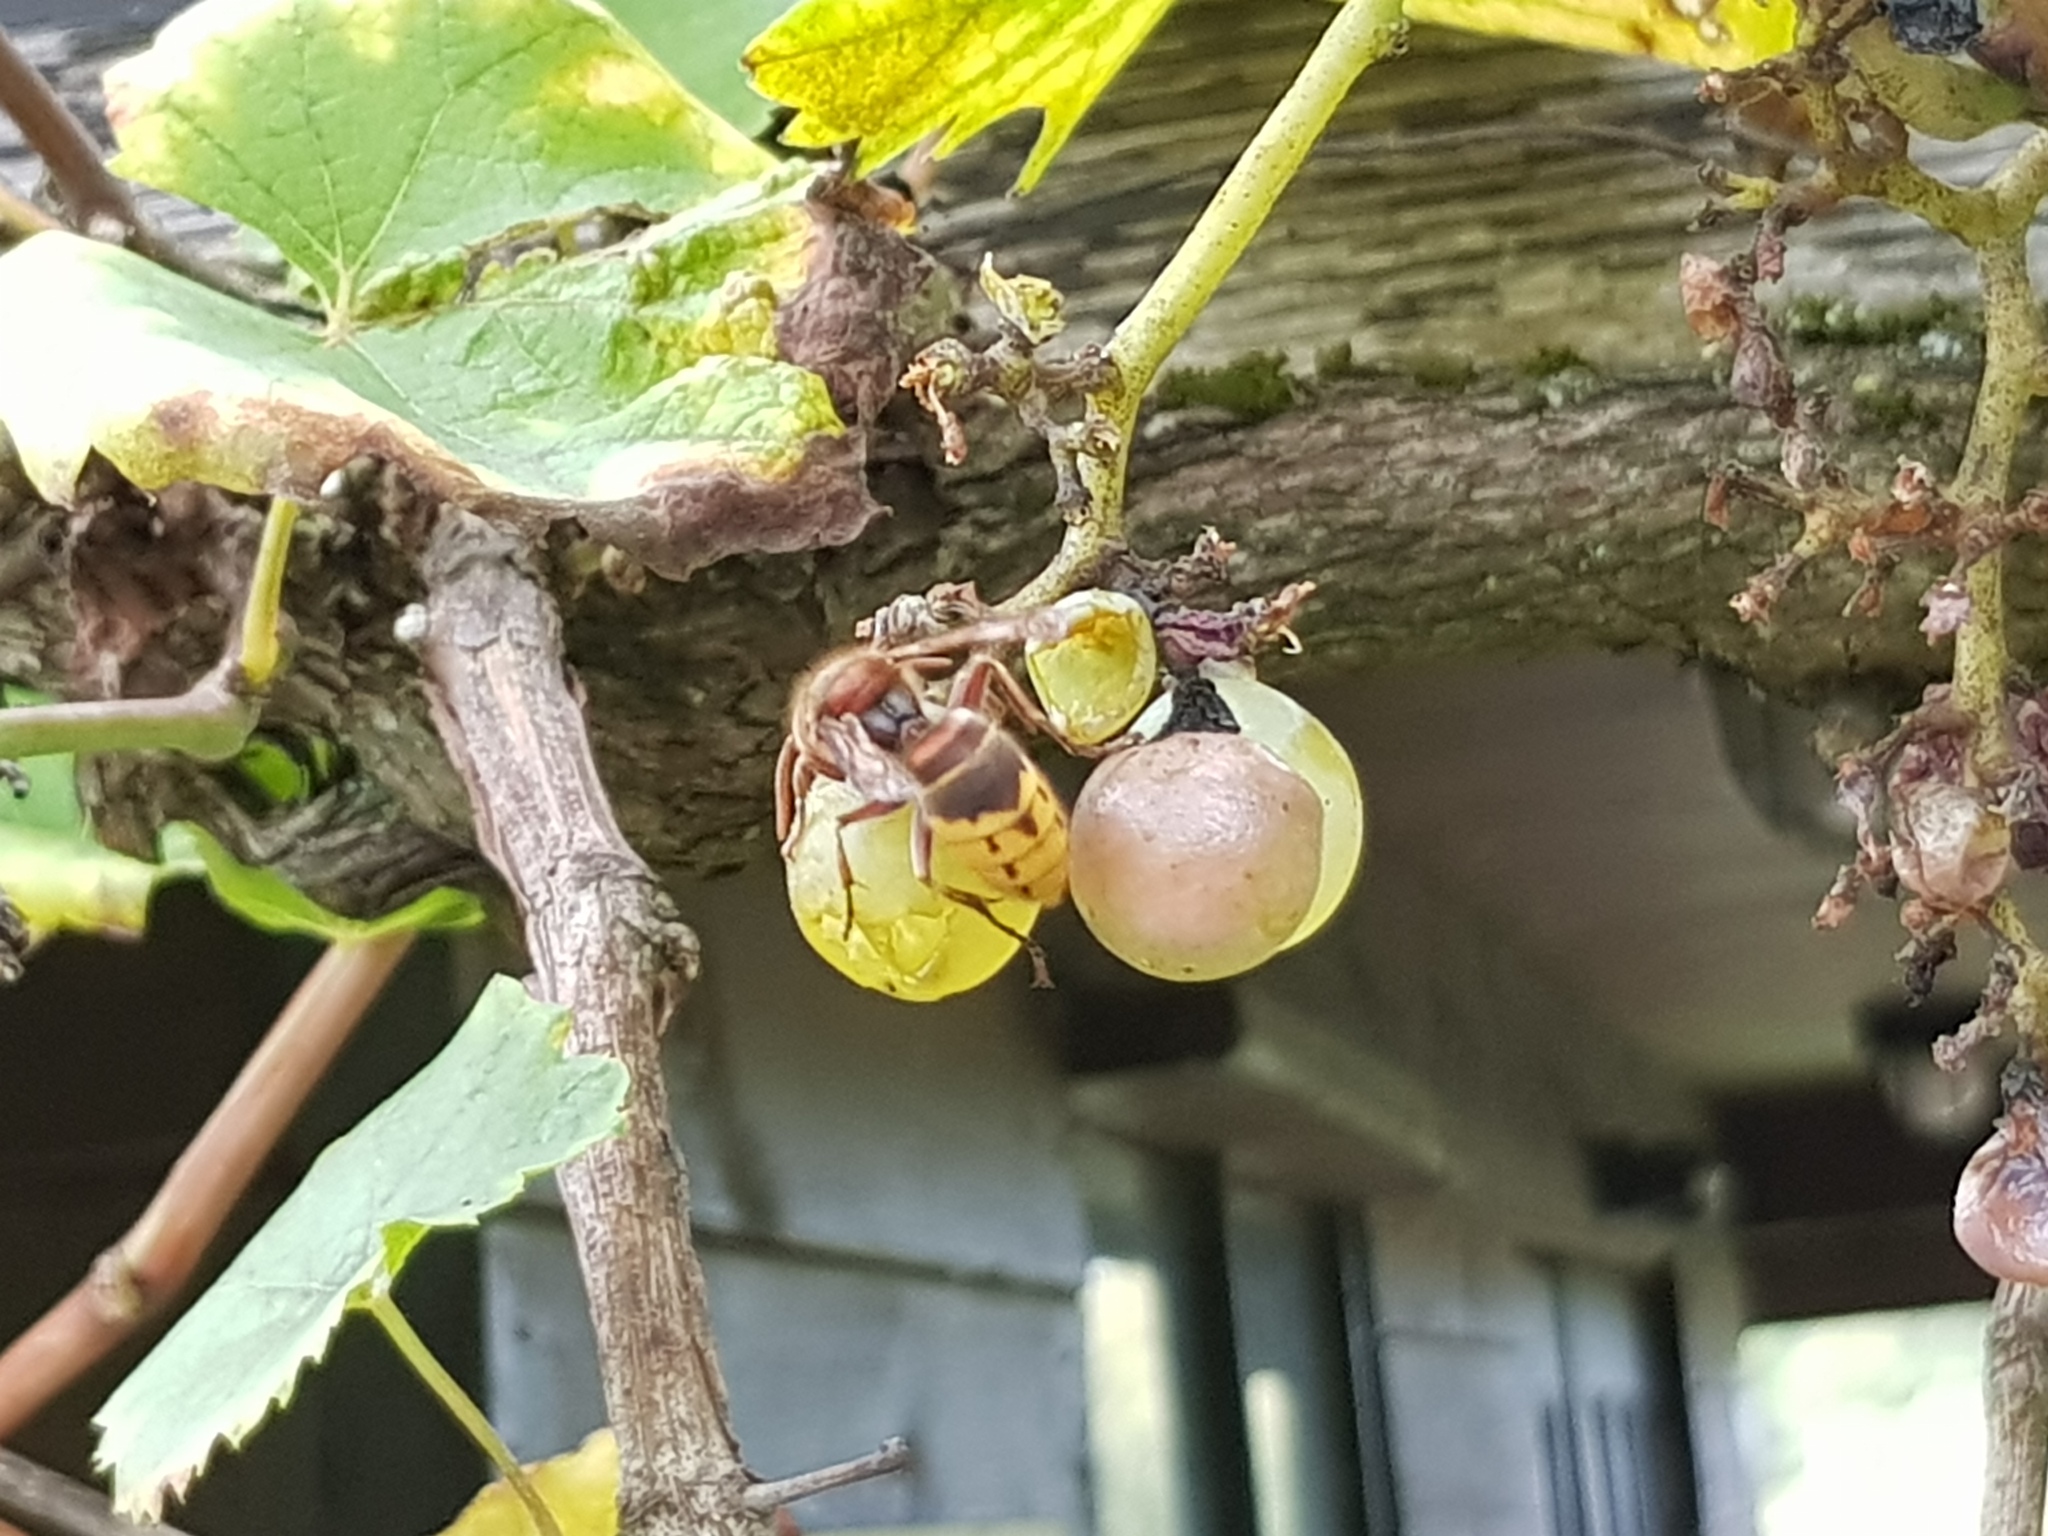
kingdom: Animalia
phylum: Arthropoda
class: Insecta
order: Hymenoptera
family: Vespidae
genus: Vespa
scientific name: Vespa crabro
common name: Hornet
